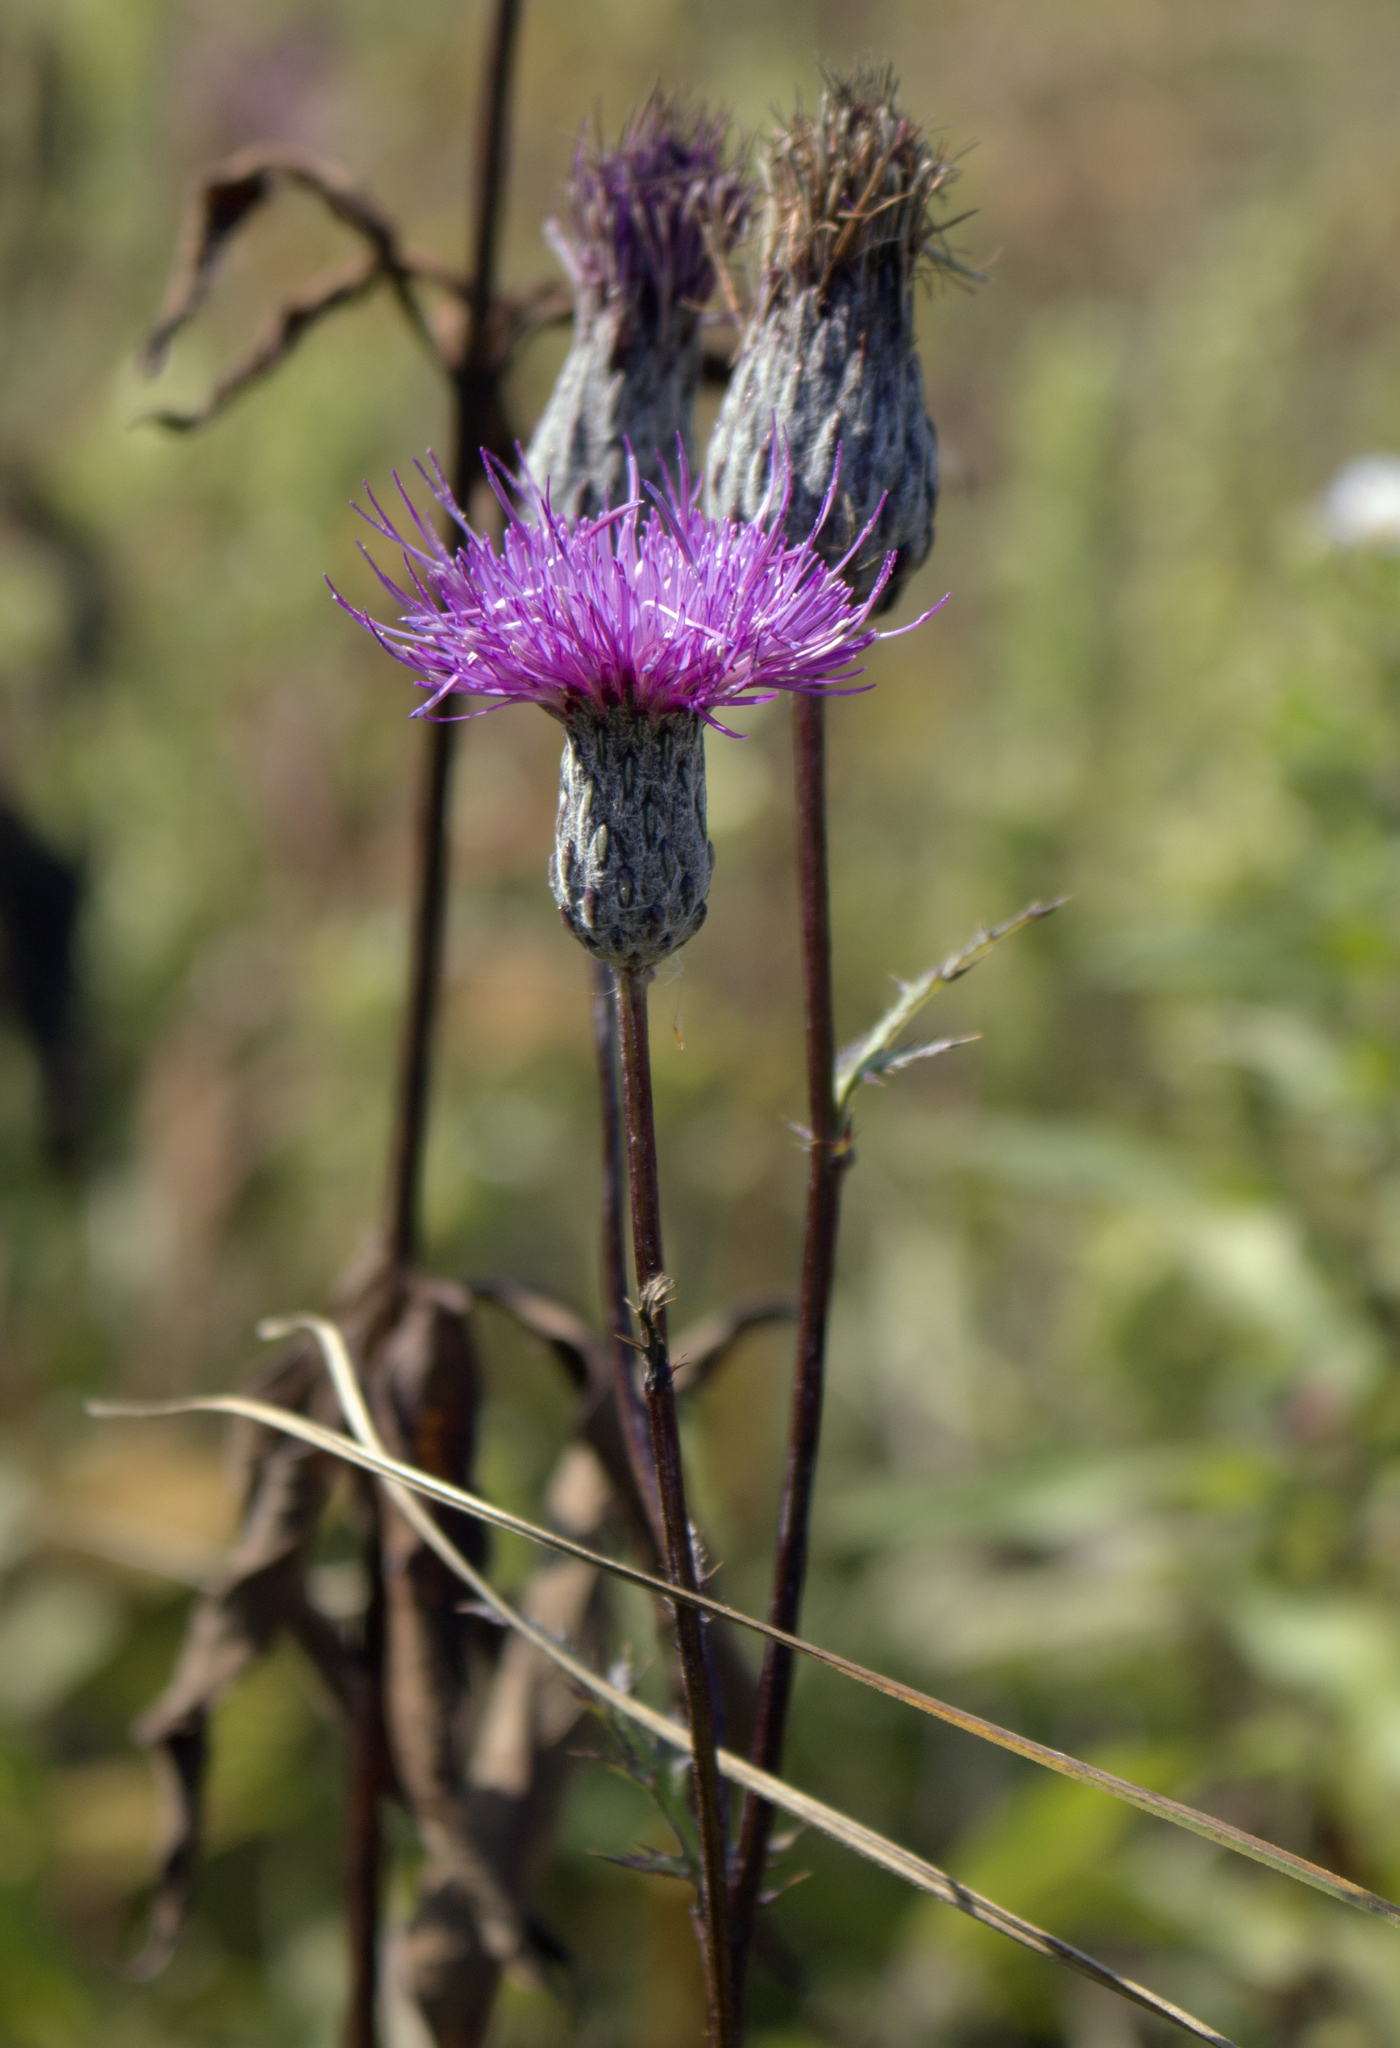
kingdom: Plantae
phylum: Tracheophyta
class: Magnoliopsida
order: Asterales
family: Asteraceae
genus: Cirsium
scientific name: Cirsium muticum
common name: Dunce-nettle
